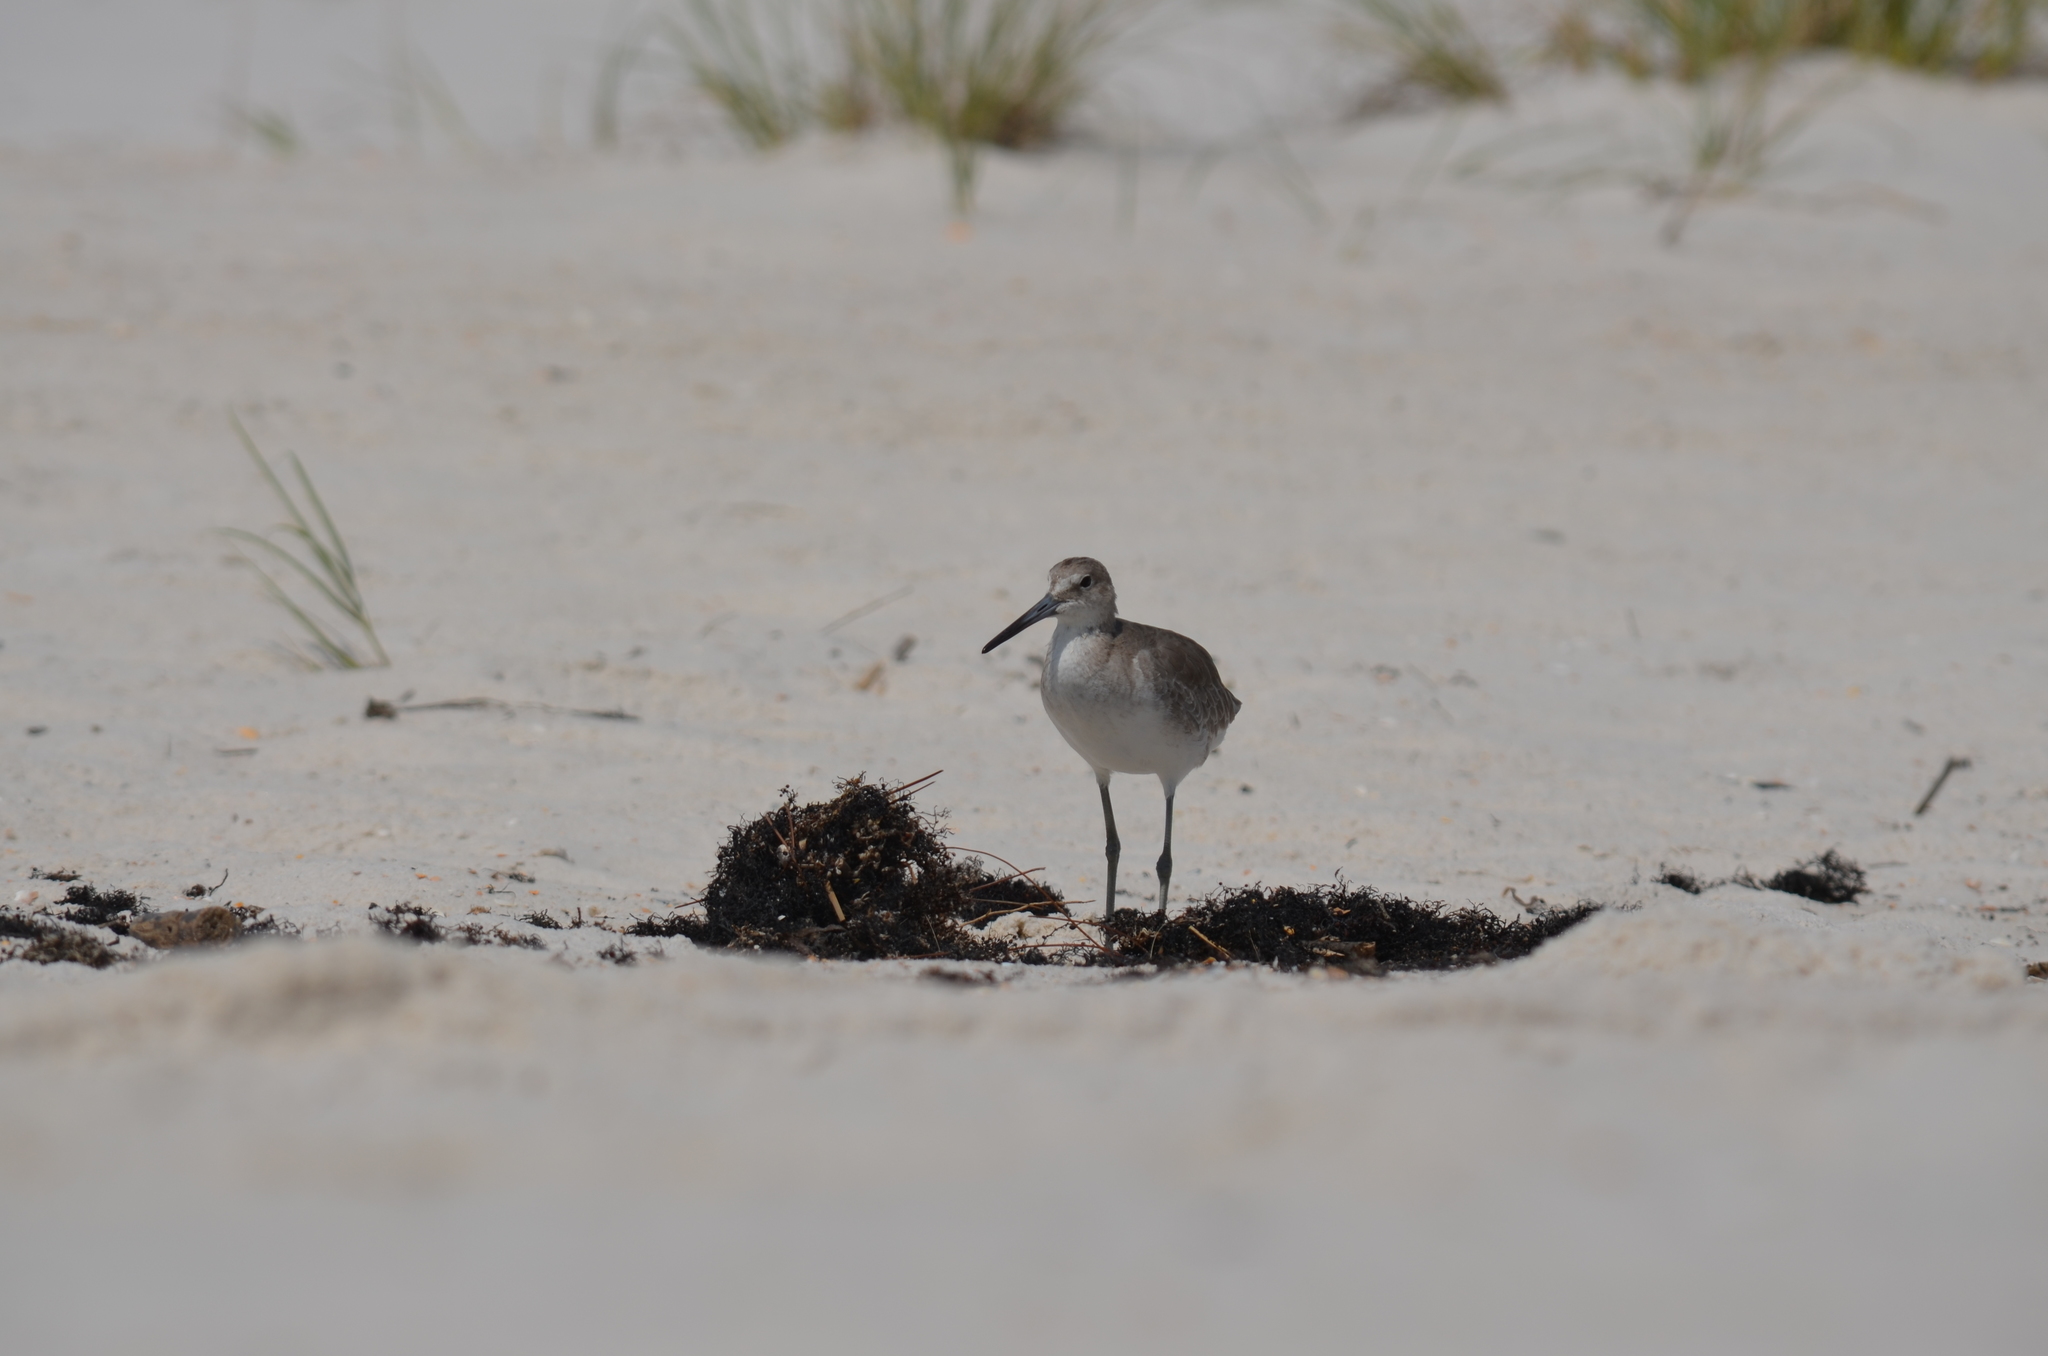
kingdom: Animalia
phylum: Chordata
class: Aves
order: Charadriiformes
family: Scolopacidae
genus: Tringa
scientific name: Tringa semipalmata
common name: Willet
